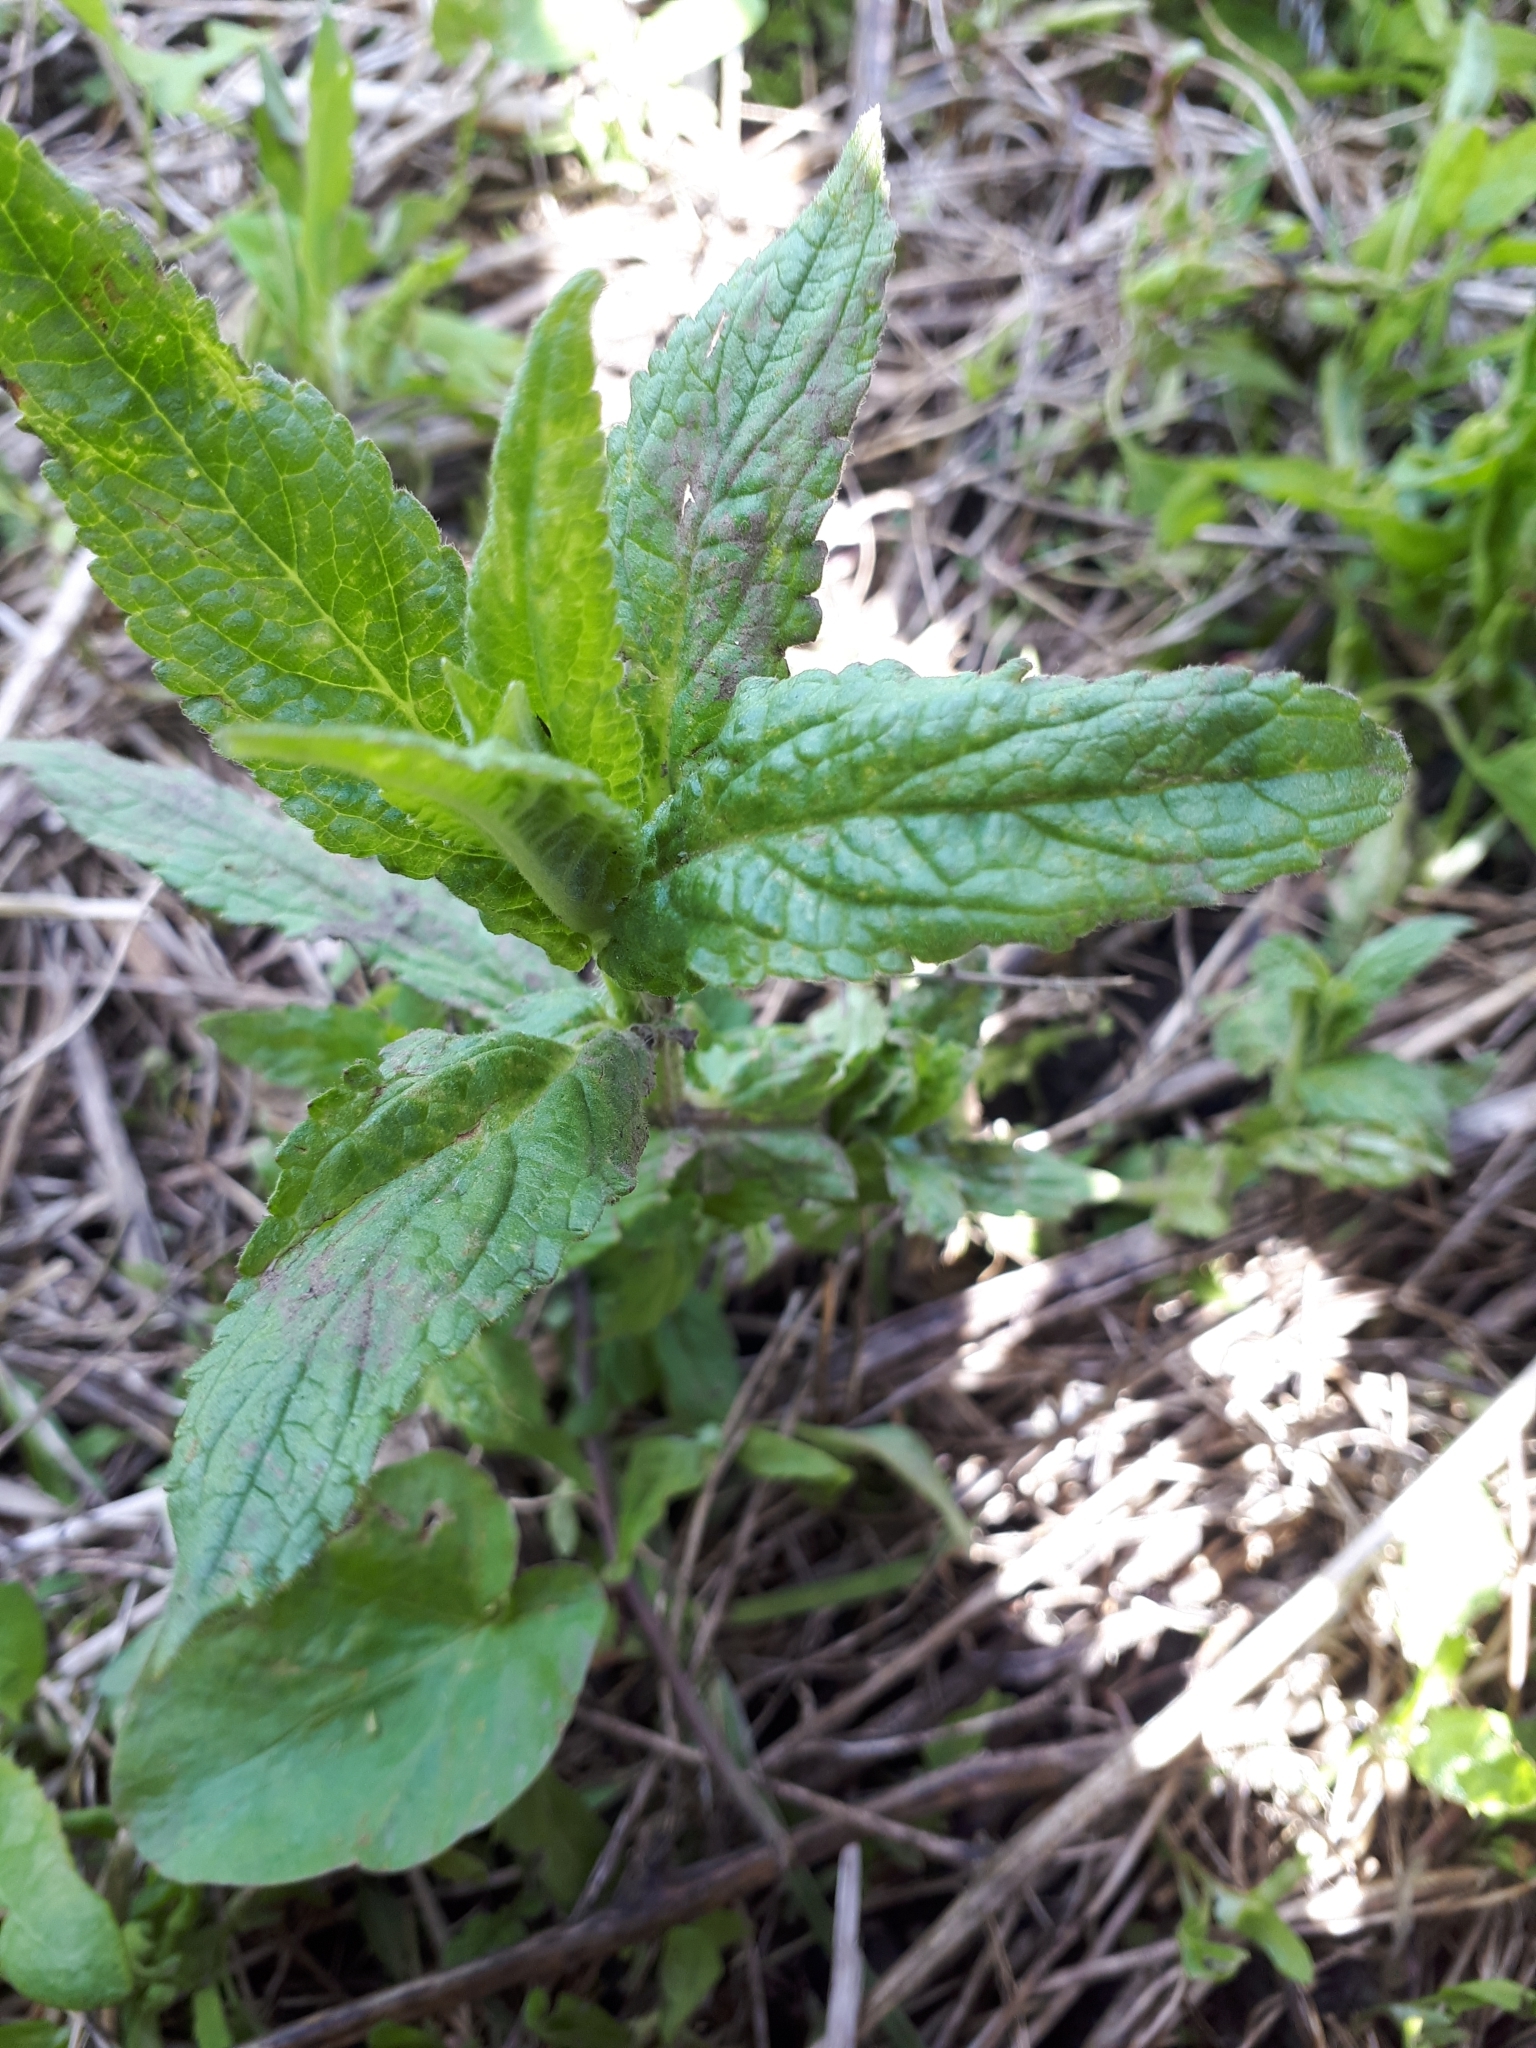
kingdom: Plantae
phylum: Tracheophyta
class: Magnoliopsida
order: Lamiales
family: Lamiaceae
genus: Stachys
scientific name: Stachys palustris
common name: Marsh woundwort
